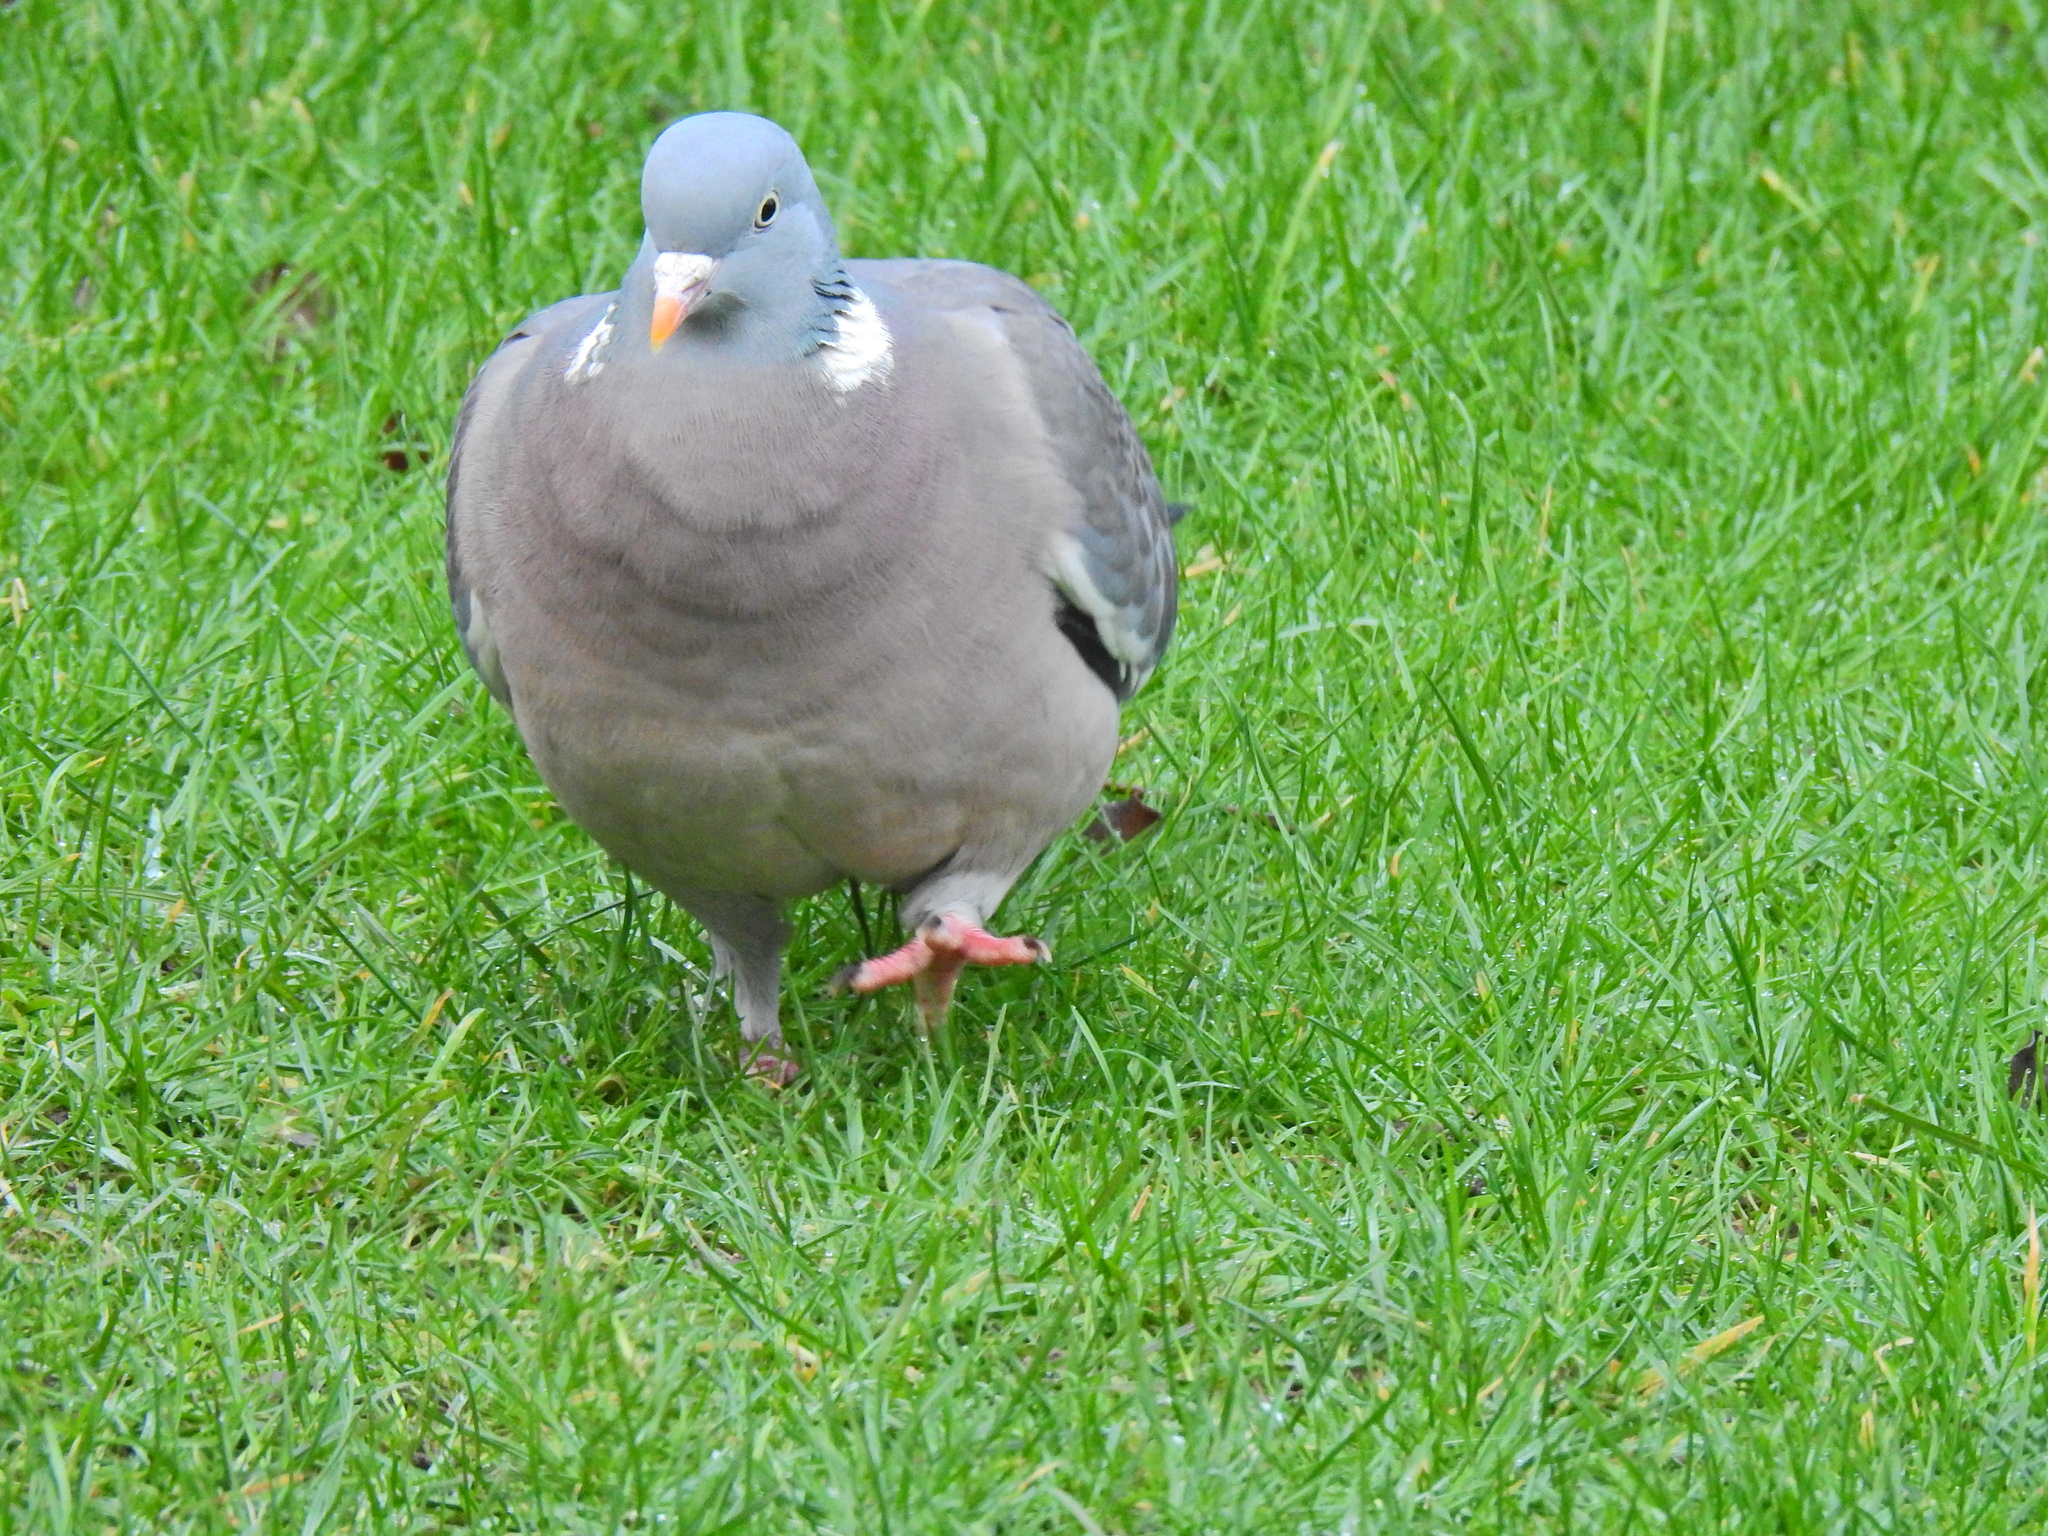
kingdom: Animalia
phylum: Chordata
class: Aves
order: Columbiformes
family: Columbidae
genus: Columba
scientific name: Columba palumbus
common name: Common wood pigeon
